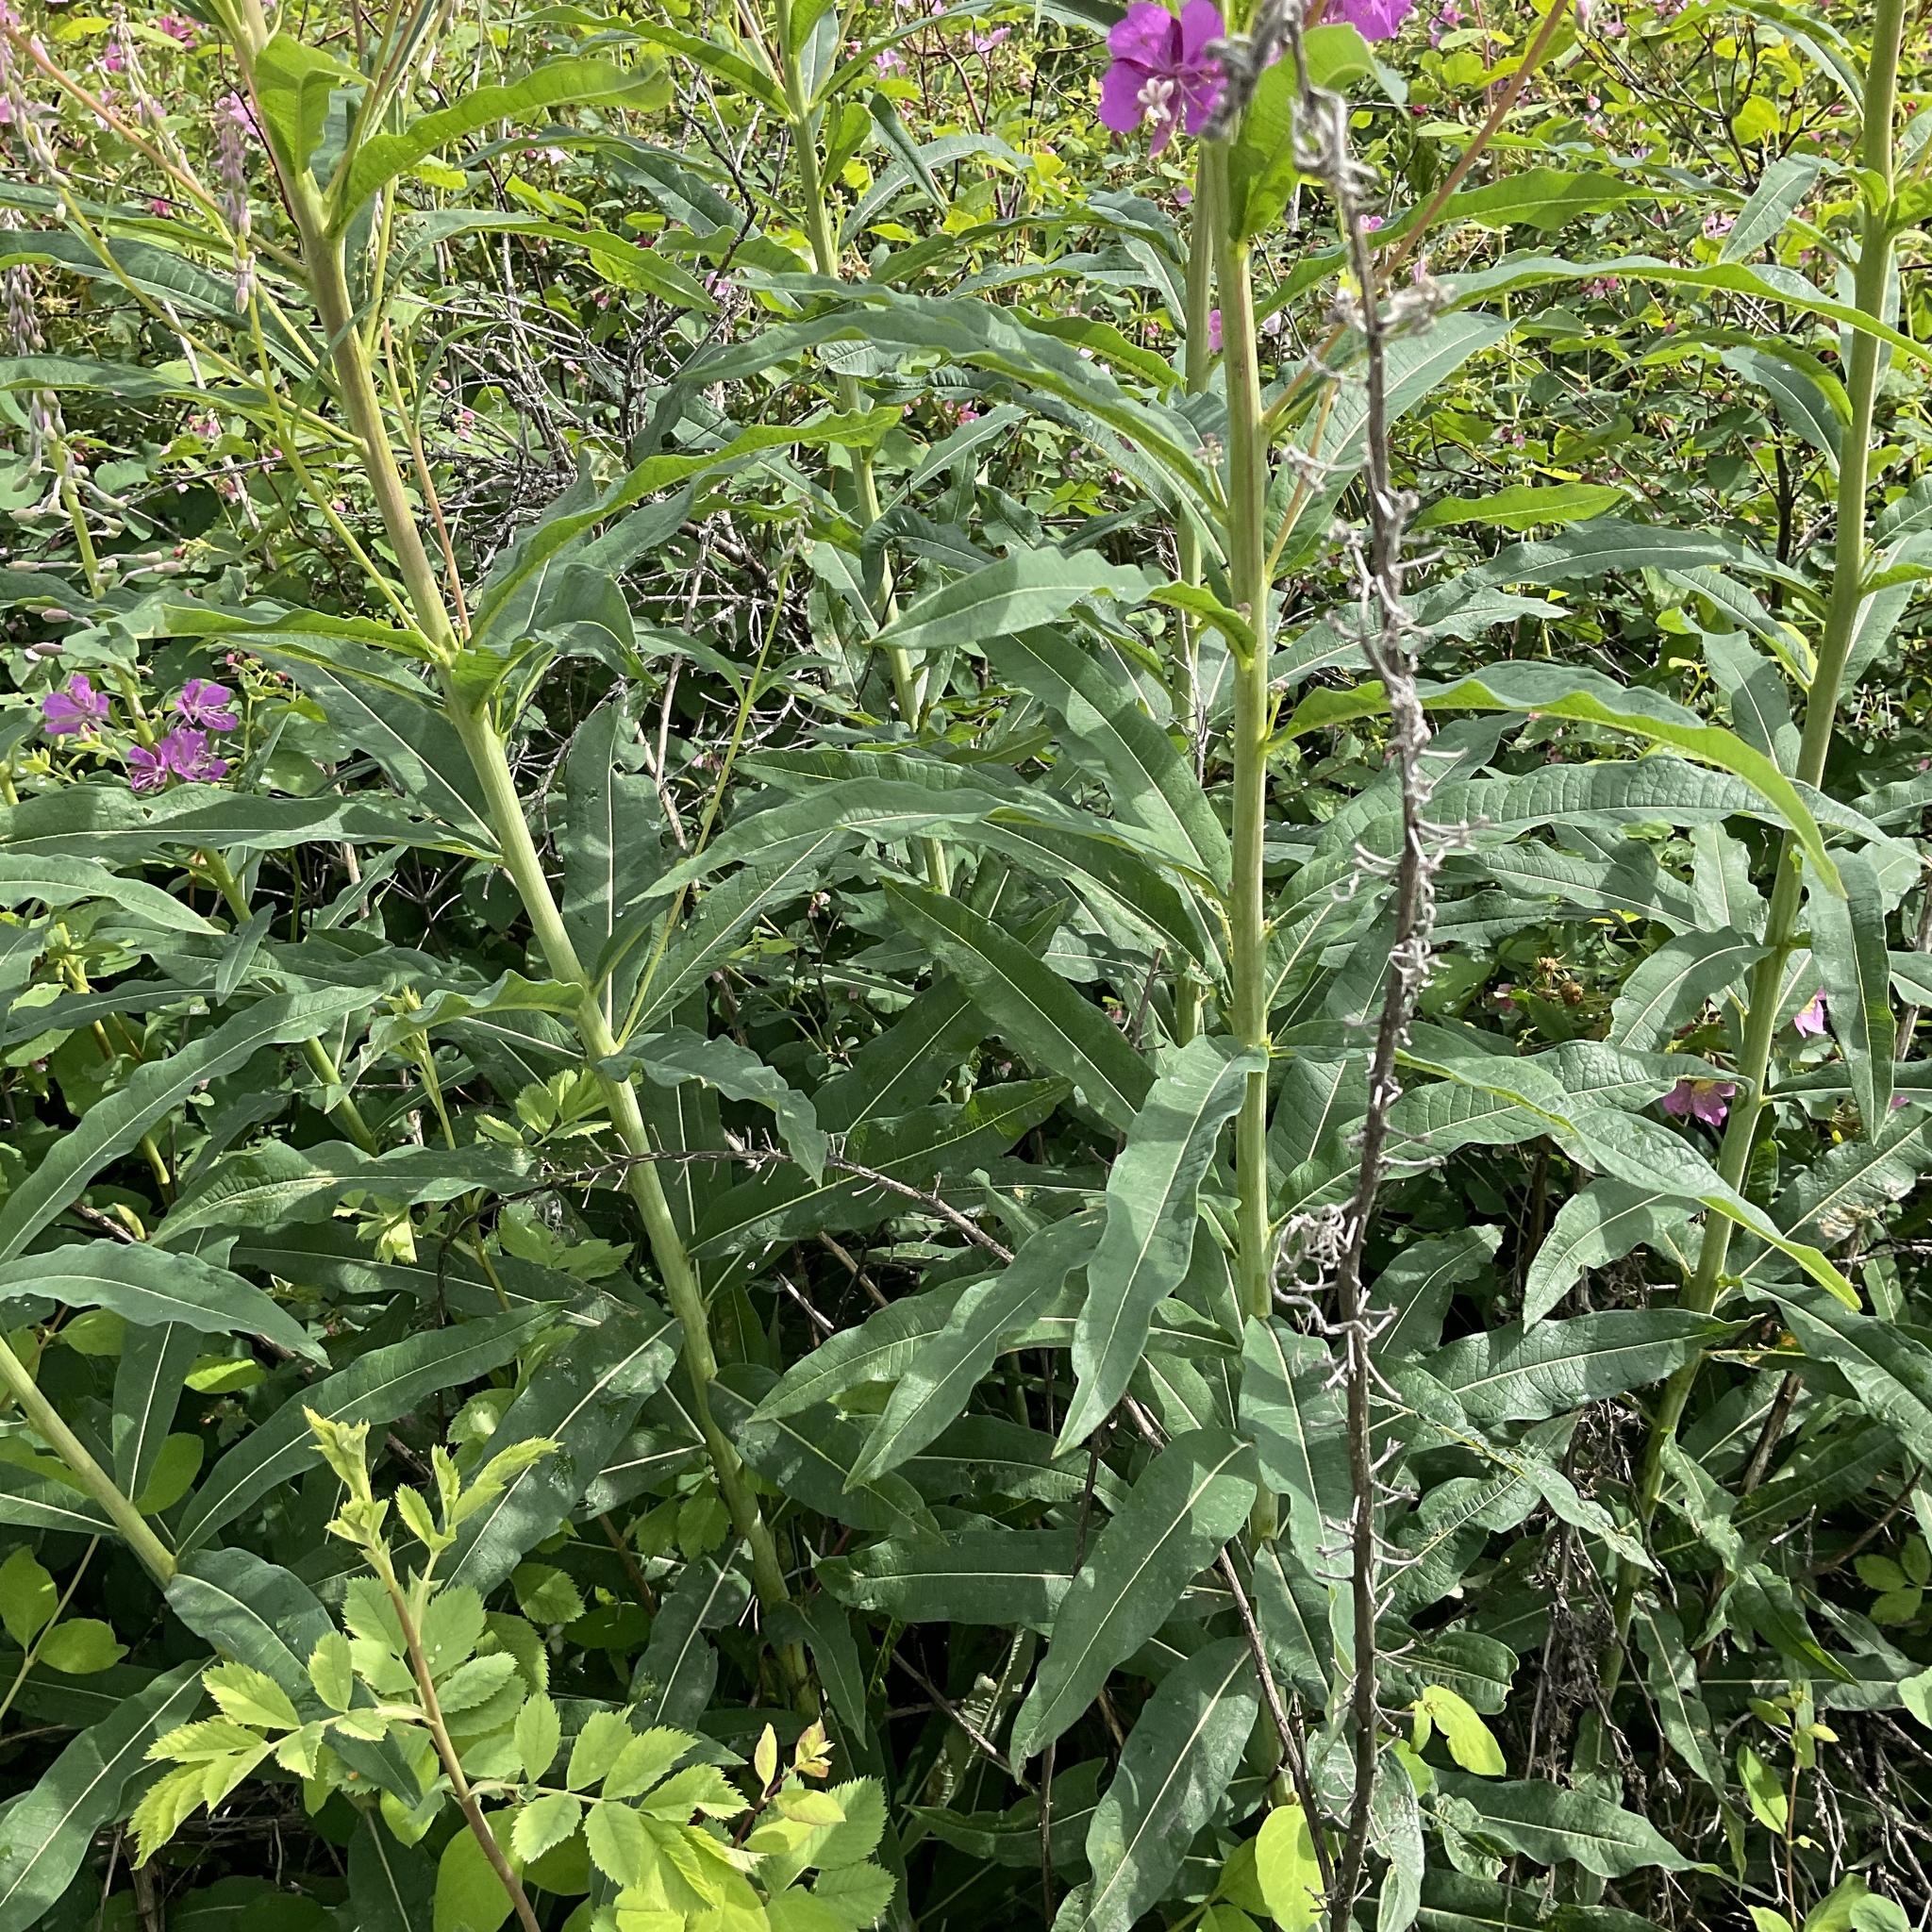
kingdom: Plantae
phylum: Tracheophyta
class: Magnoliopsida
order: Myrtales
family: Onagraceae
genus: Chamaenerion
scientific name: Chamaenerion angustifolium
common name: Fireweed
